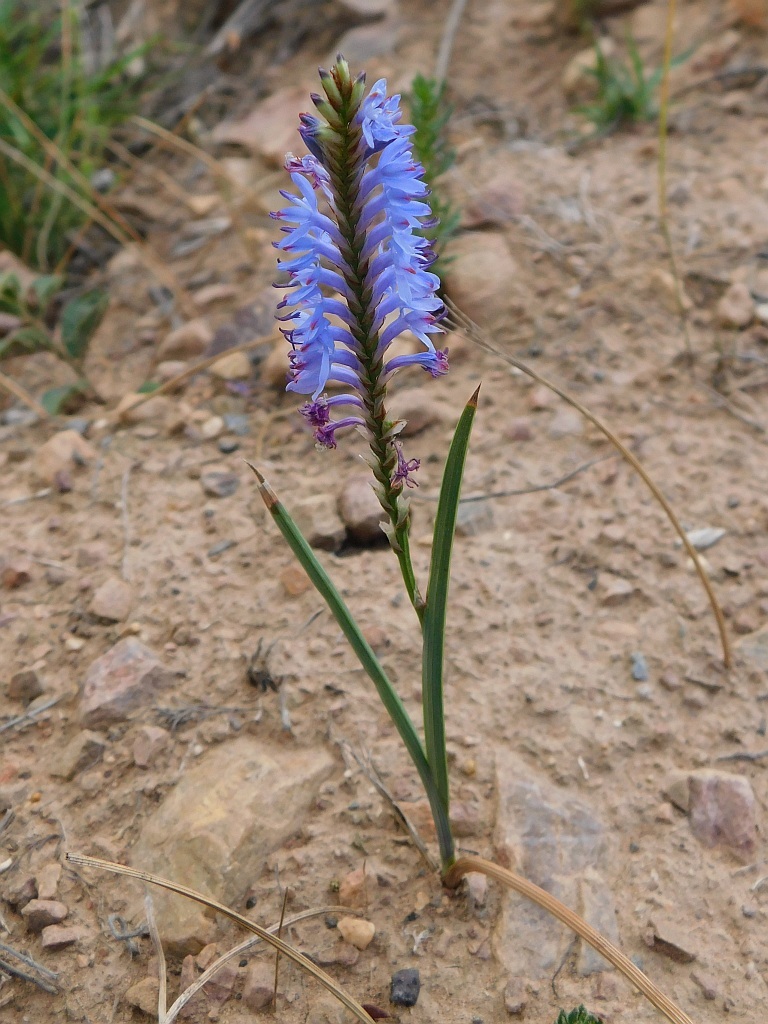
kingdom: Plantae
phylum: Tracheophyta
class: Liliopsida
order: Asparagales
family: Iridaceae
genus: Micranthus
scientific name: Micranthus plantagineus
